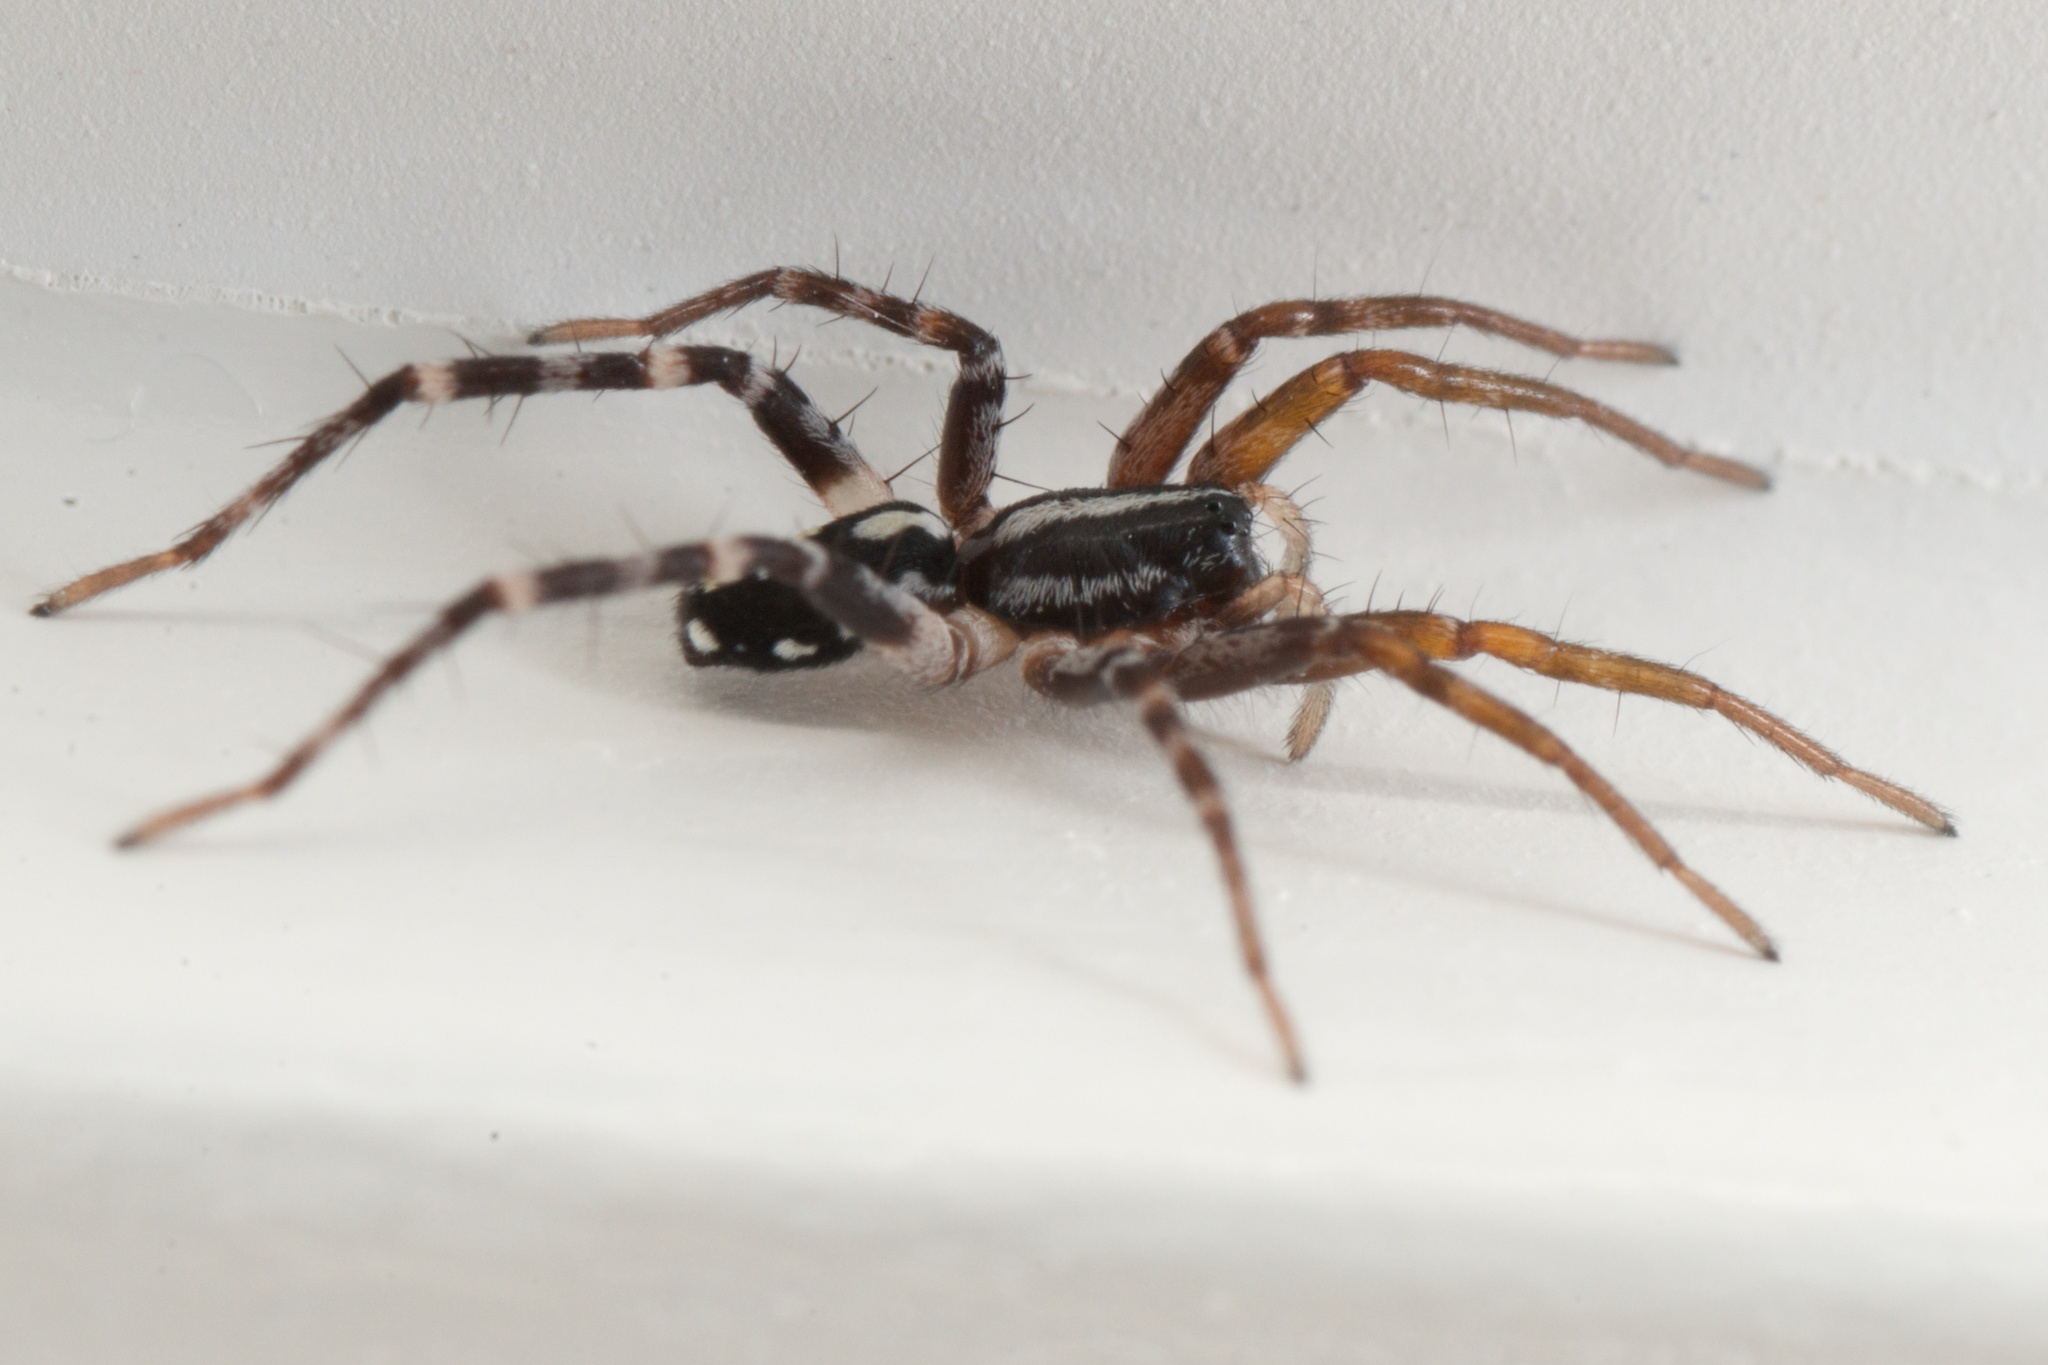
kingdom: Animalia
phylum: Arthropoda
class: Arachnida
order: Araneae
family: Corinnidae
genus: Nyssus
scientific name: Nyssus coloripes
